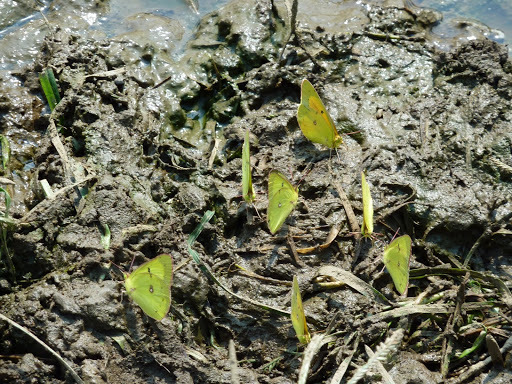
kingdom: Animalia
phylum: Arthropoda
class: Insecta
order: Lepidoptera
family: Pieridae
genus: Colias
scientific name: Colias eurytheme
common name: Alfalfa butterfly
